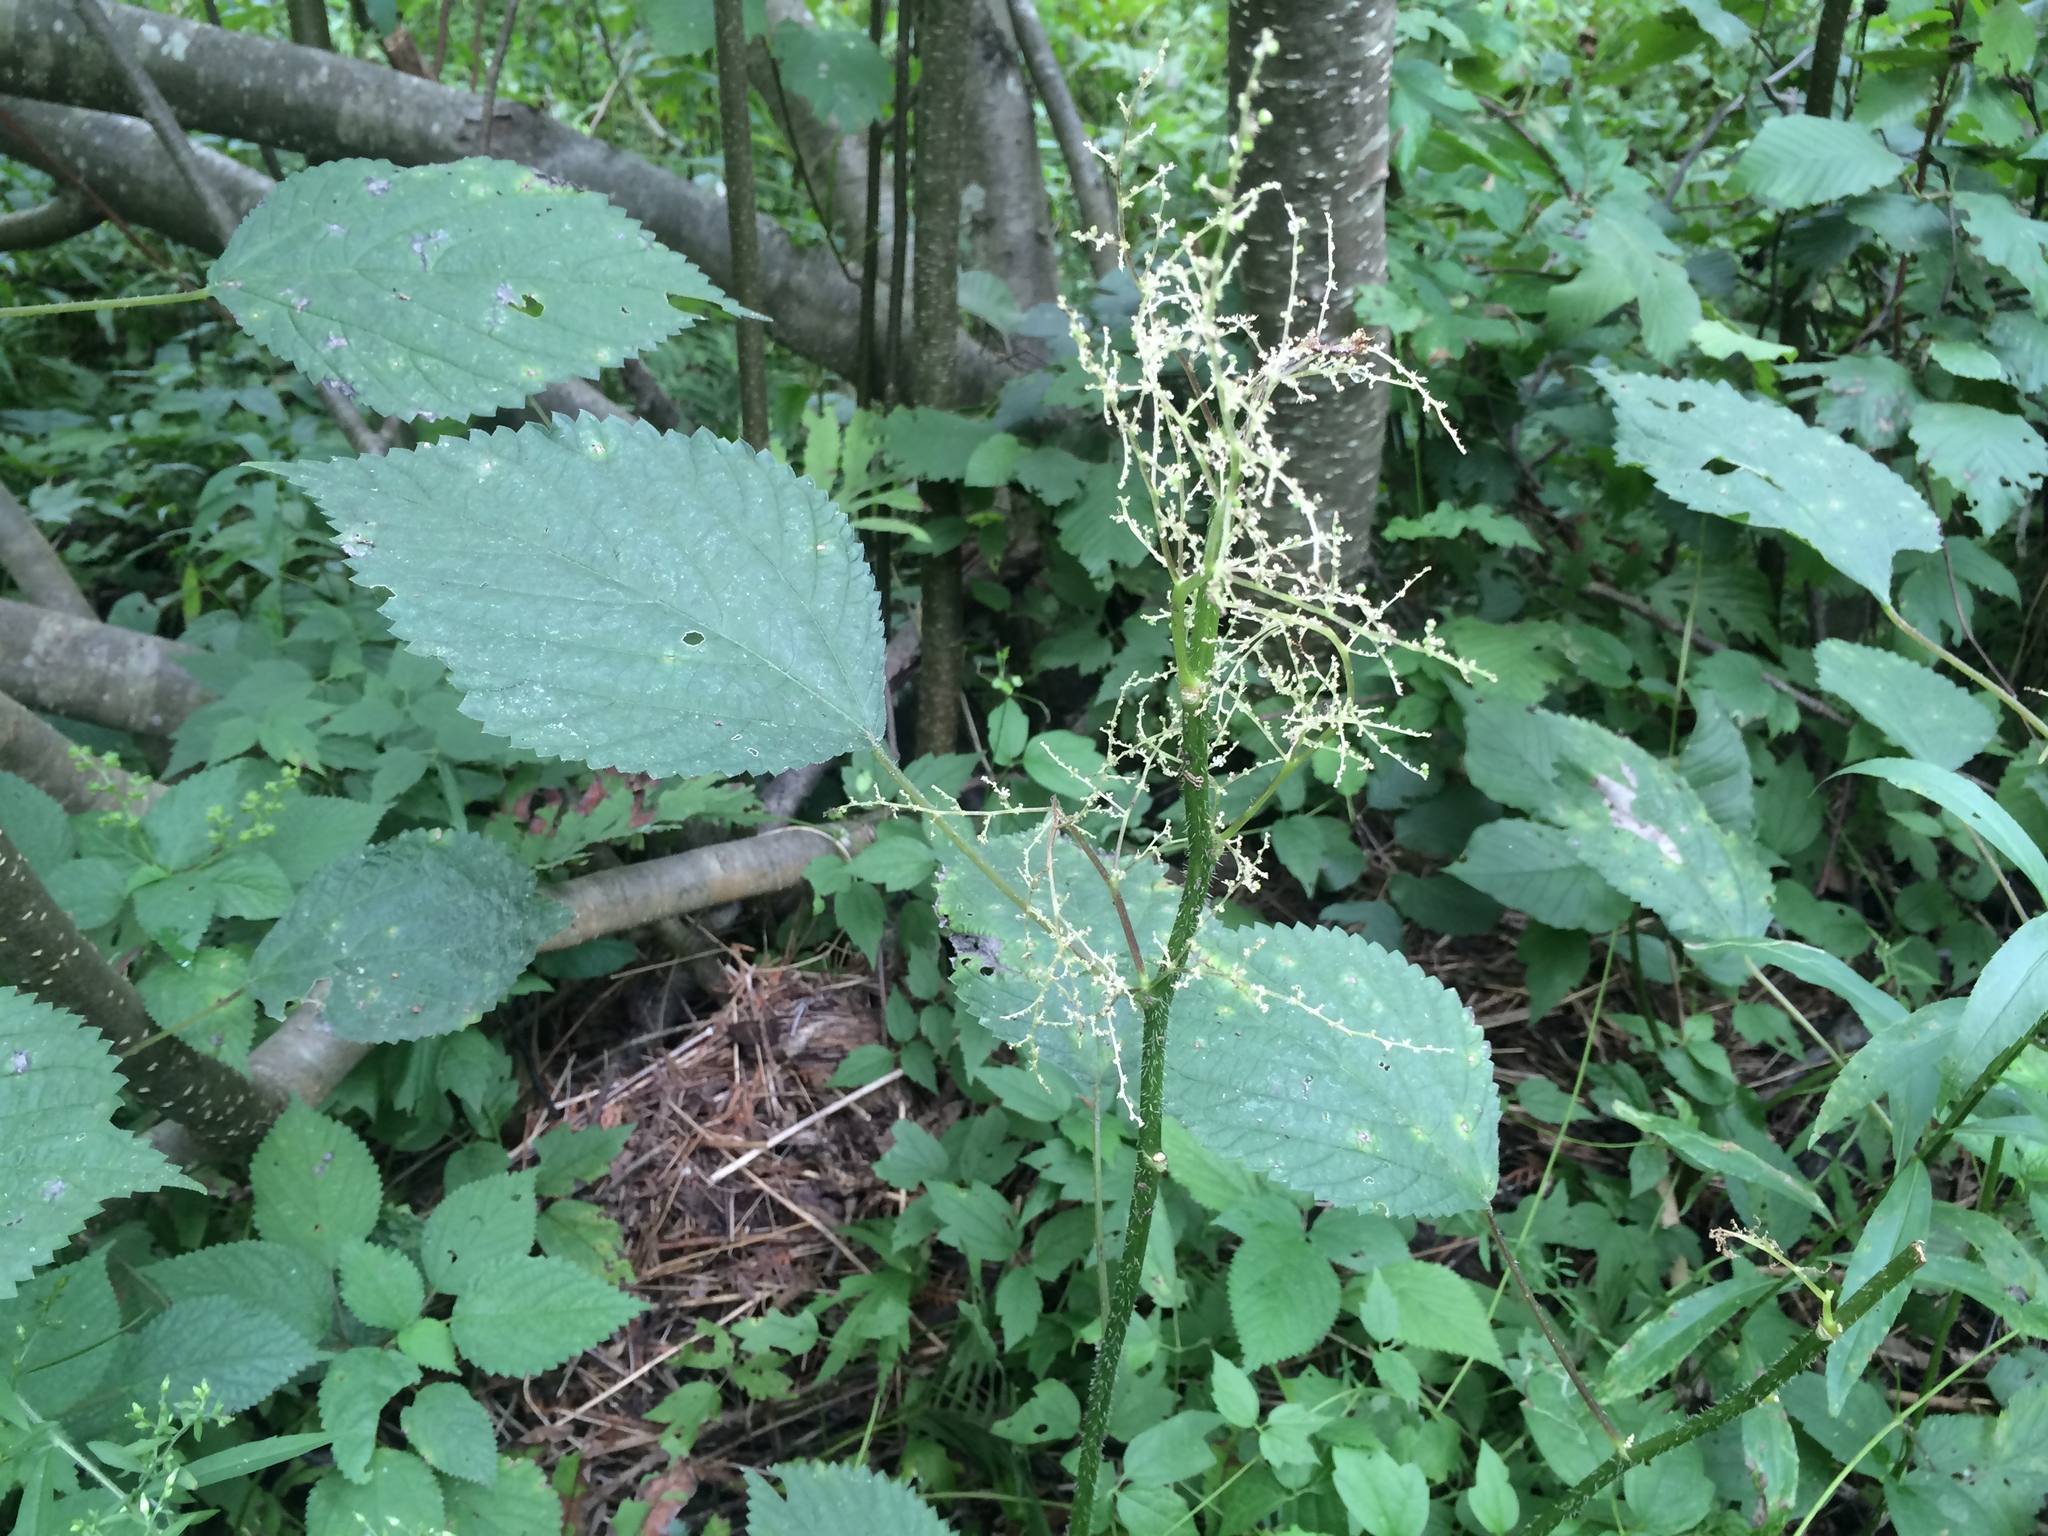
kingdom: Plantae
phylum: Tracheophyta
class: Magnoliopsida
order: Rosales
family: Urticaceae
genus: Laportea
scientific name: Laportea canadensis
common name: Canada nettle
